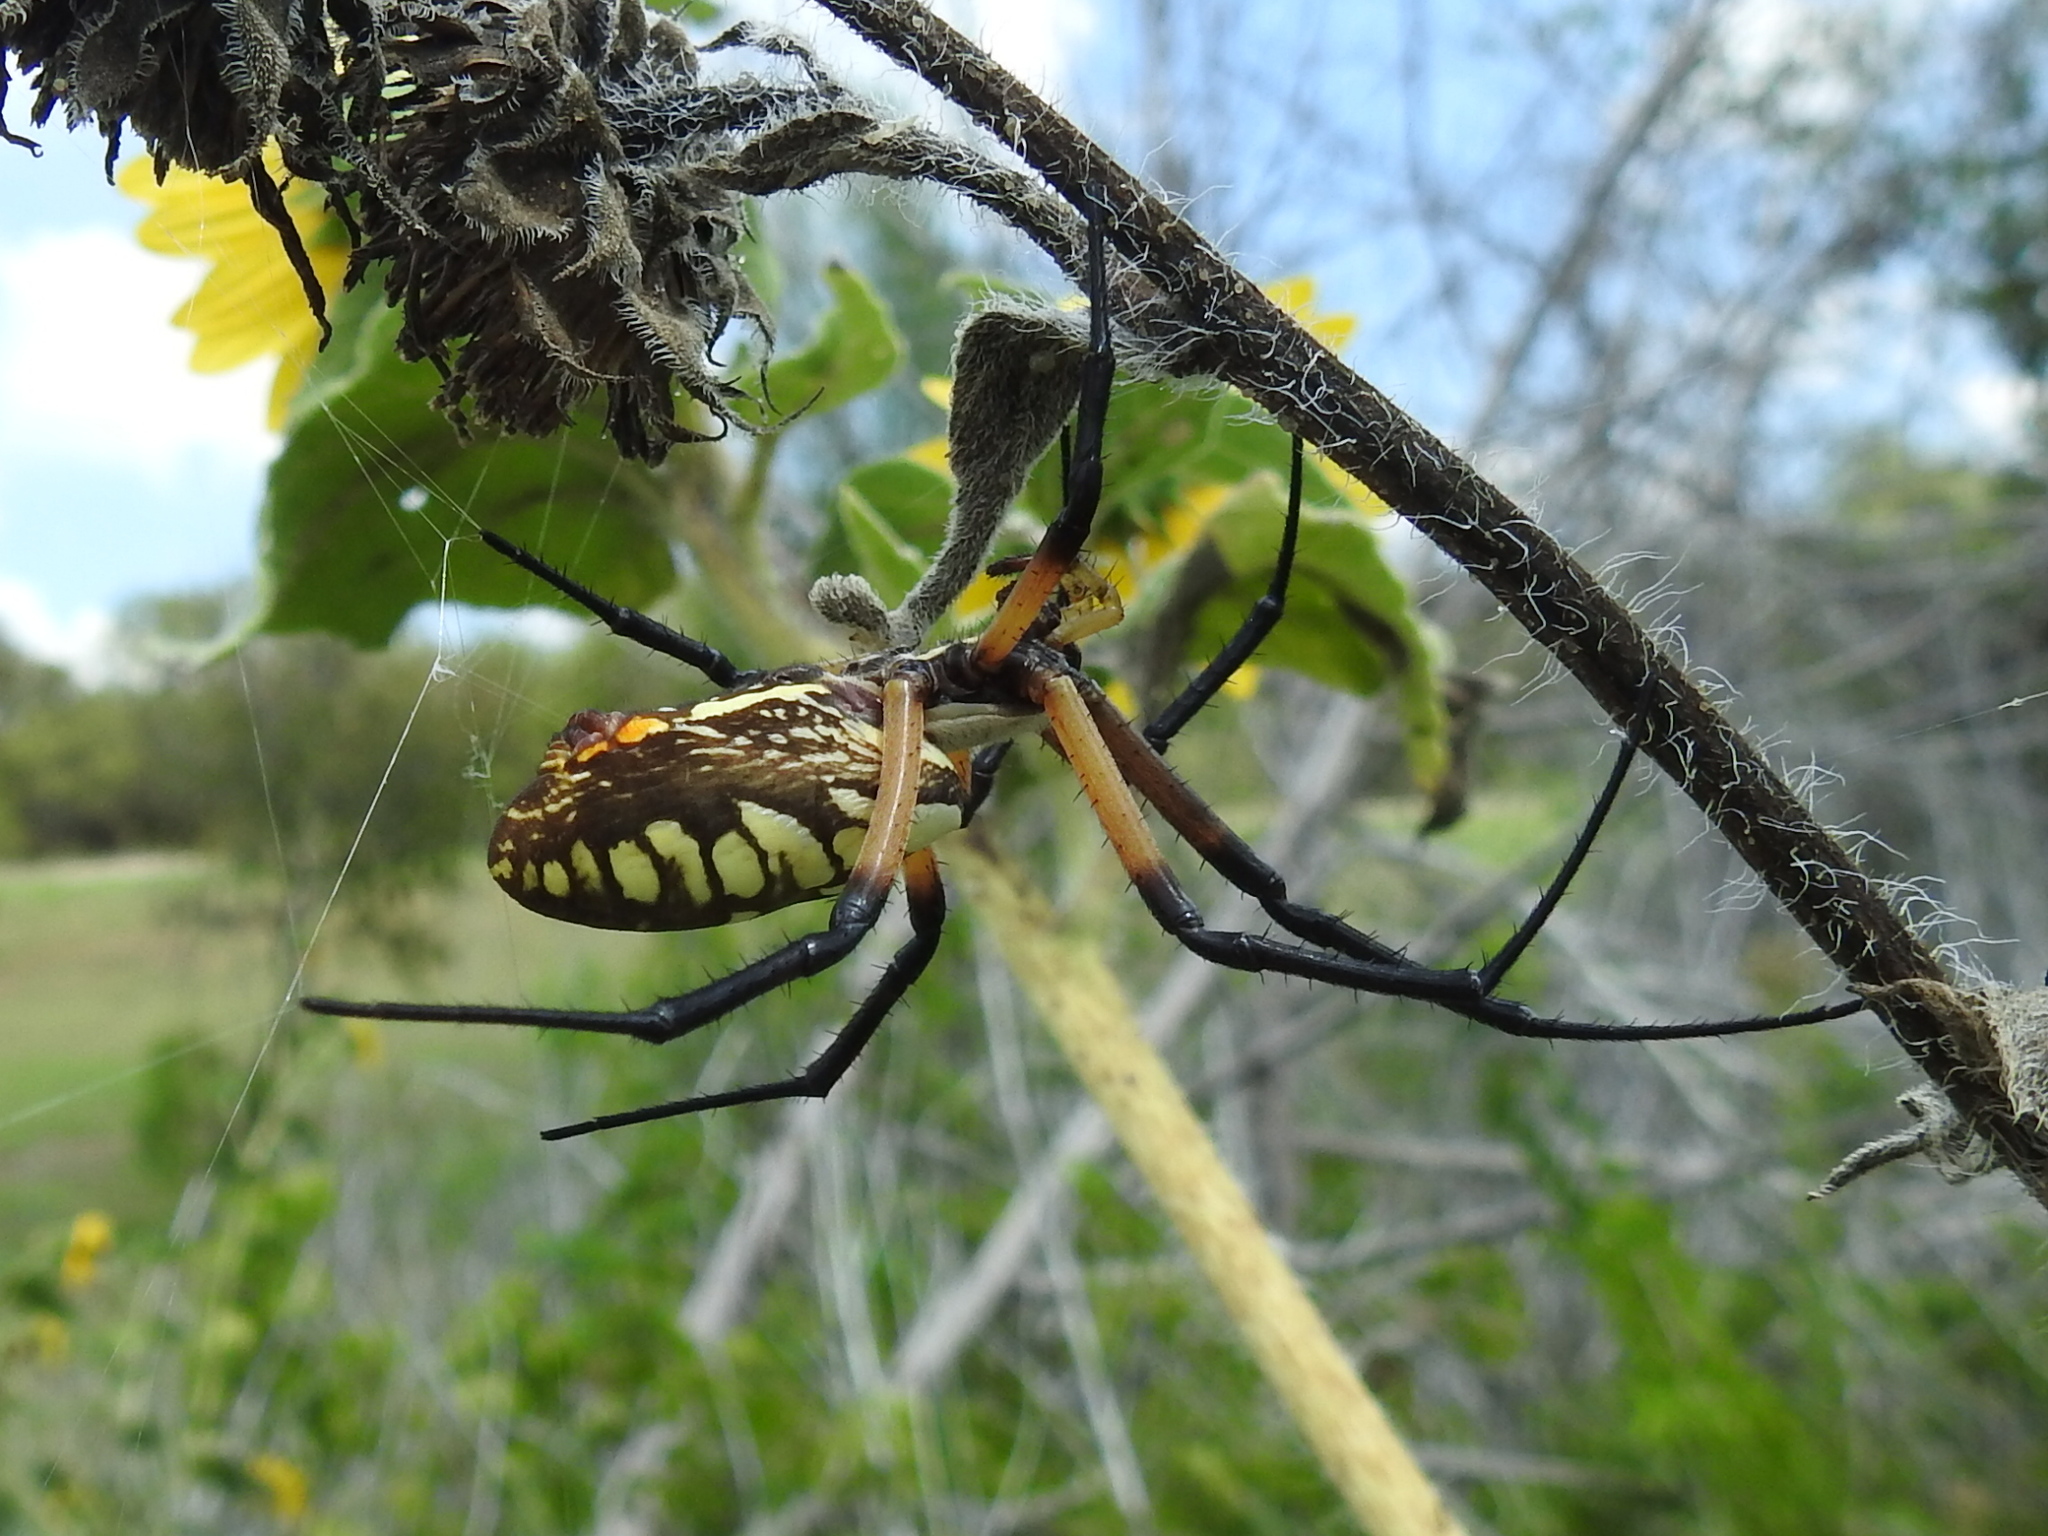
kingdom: Animalia
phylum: Arthropoda
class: Arachnida
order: Araneae
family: Araneidae
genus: Argiope
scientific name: Argiope aurantia
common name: Orb weavers
